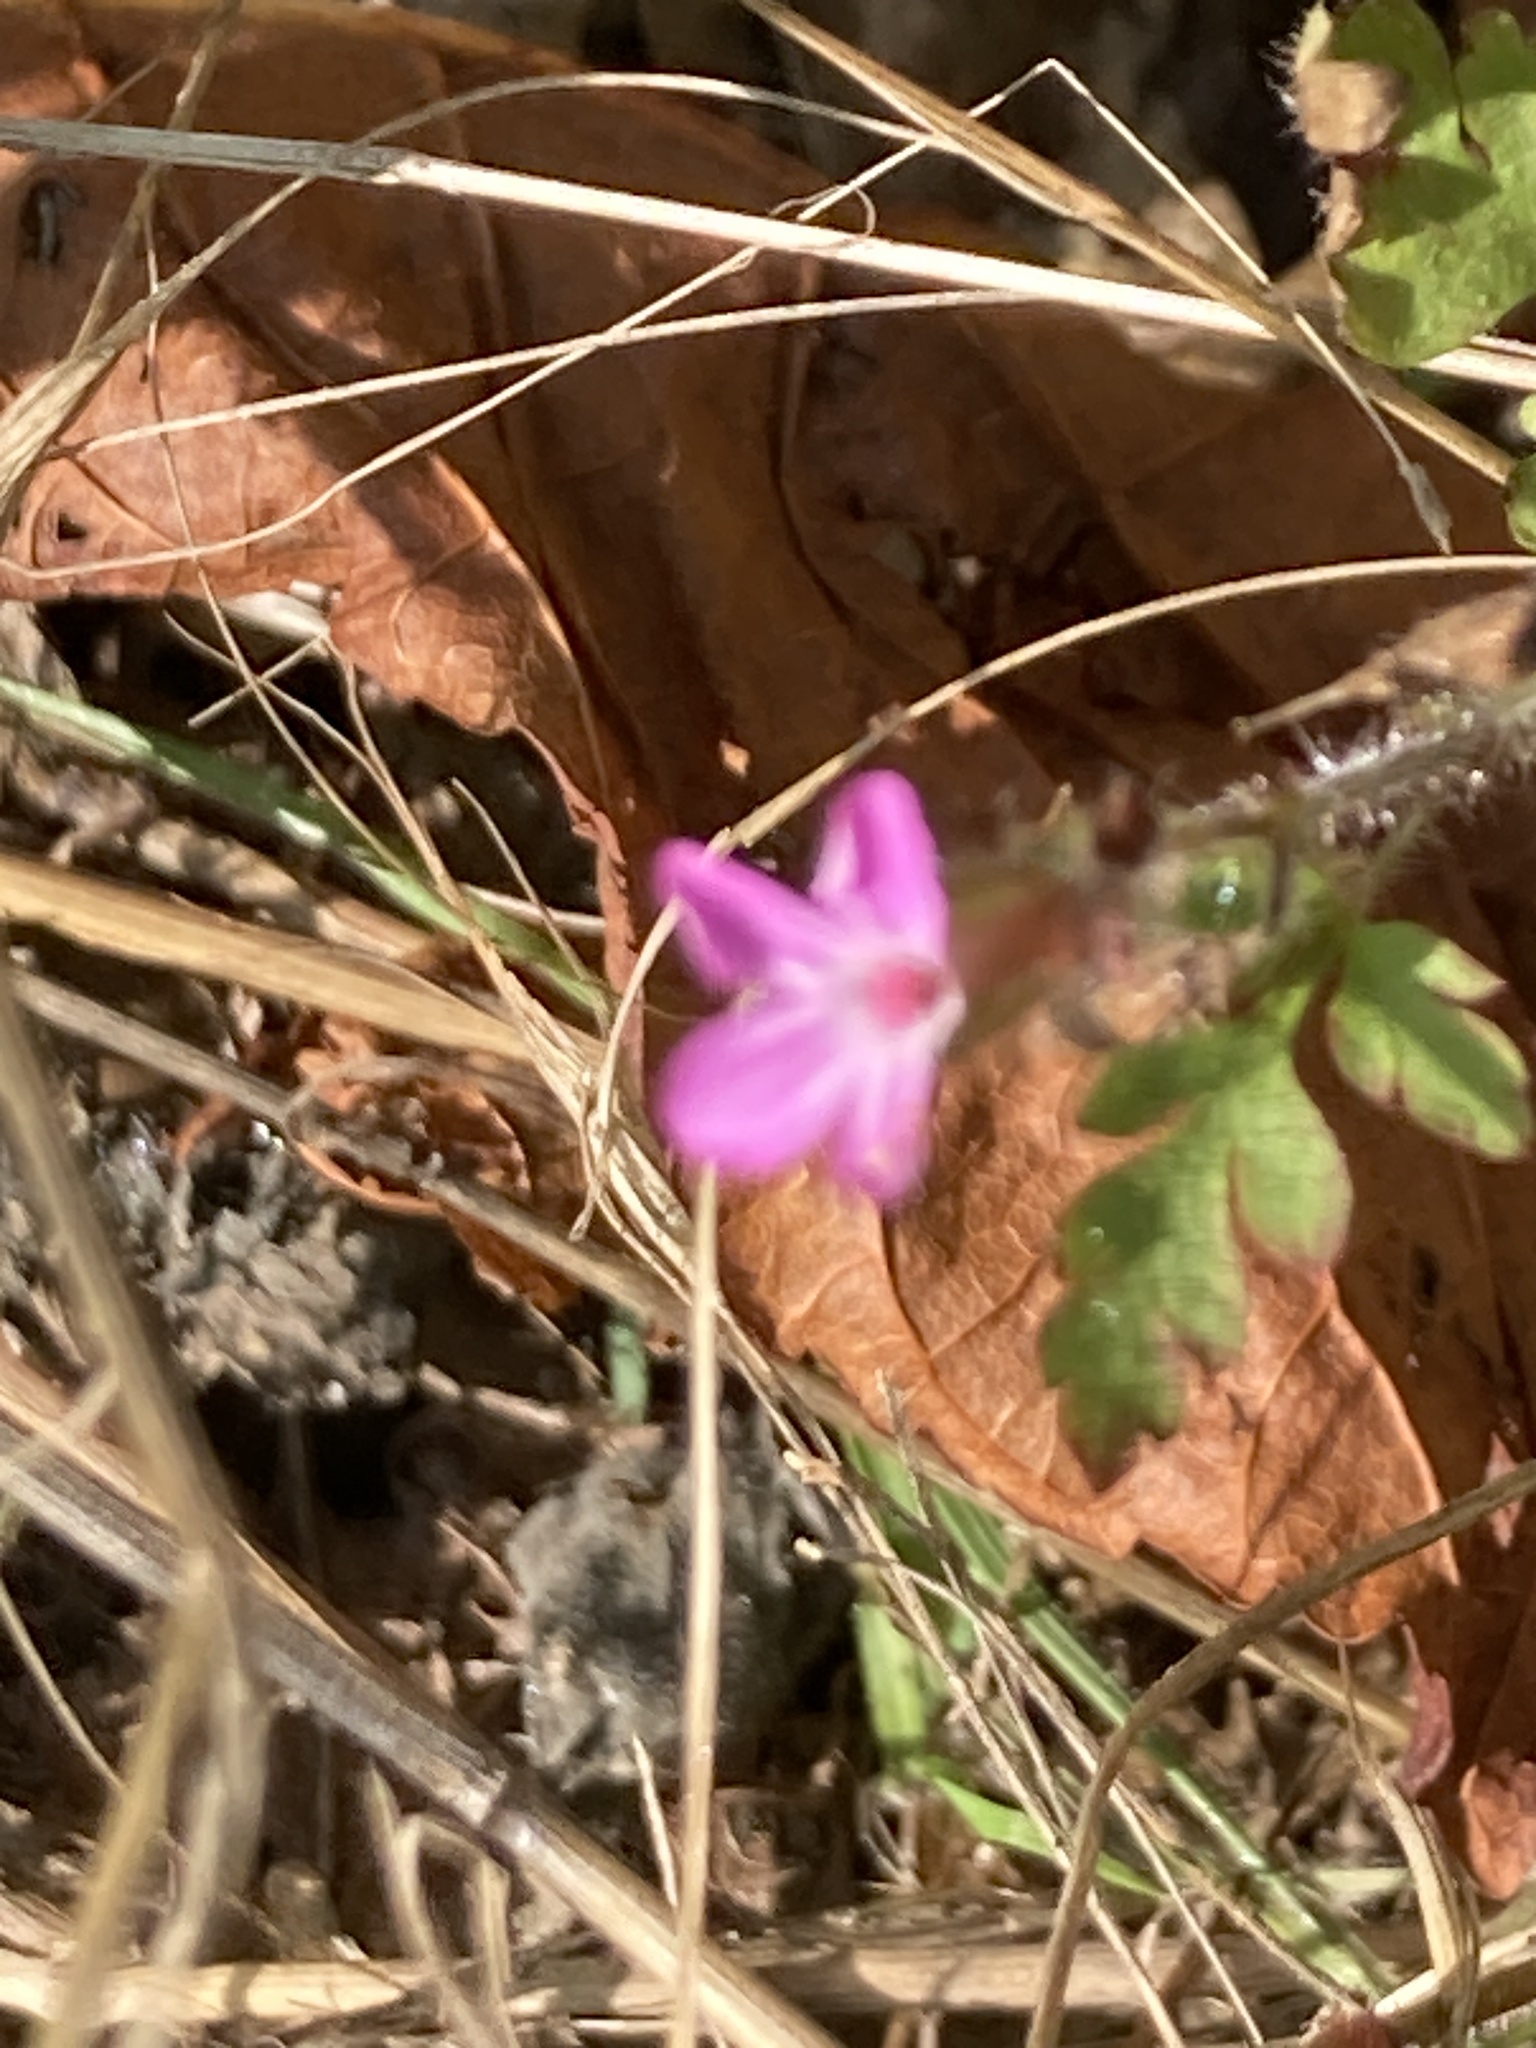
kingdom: Plantae
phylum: Tracheophyta
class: Magnoliopsida
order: Geraniales
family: Geraniaceae
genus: Geranium
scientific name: Geranium robertianum
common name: Herb-robert
